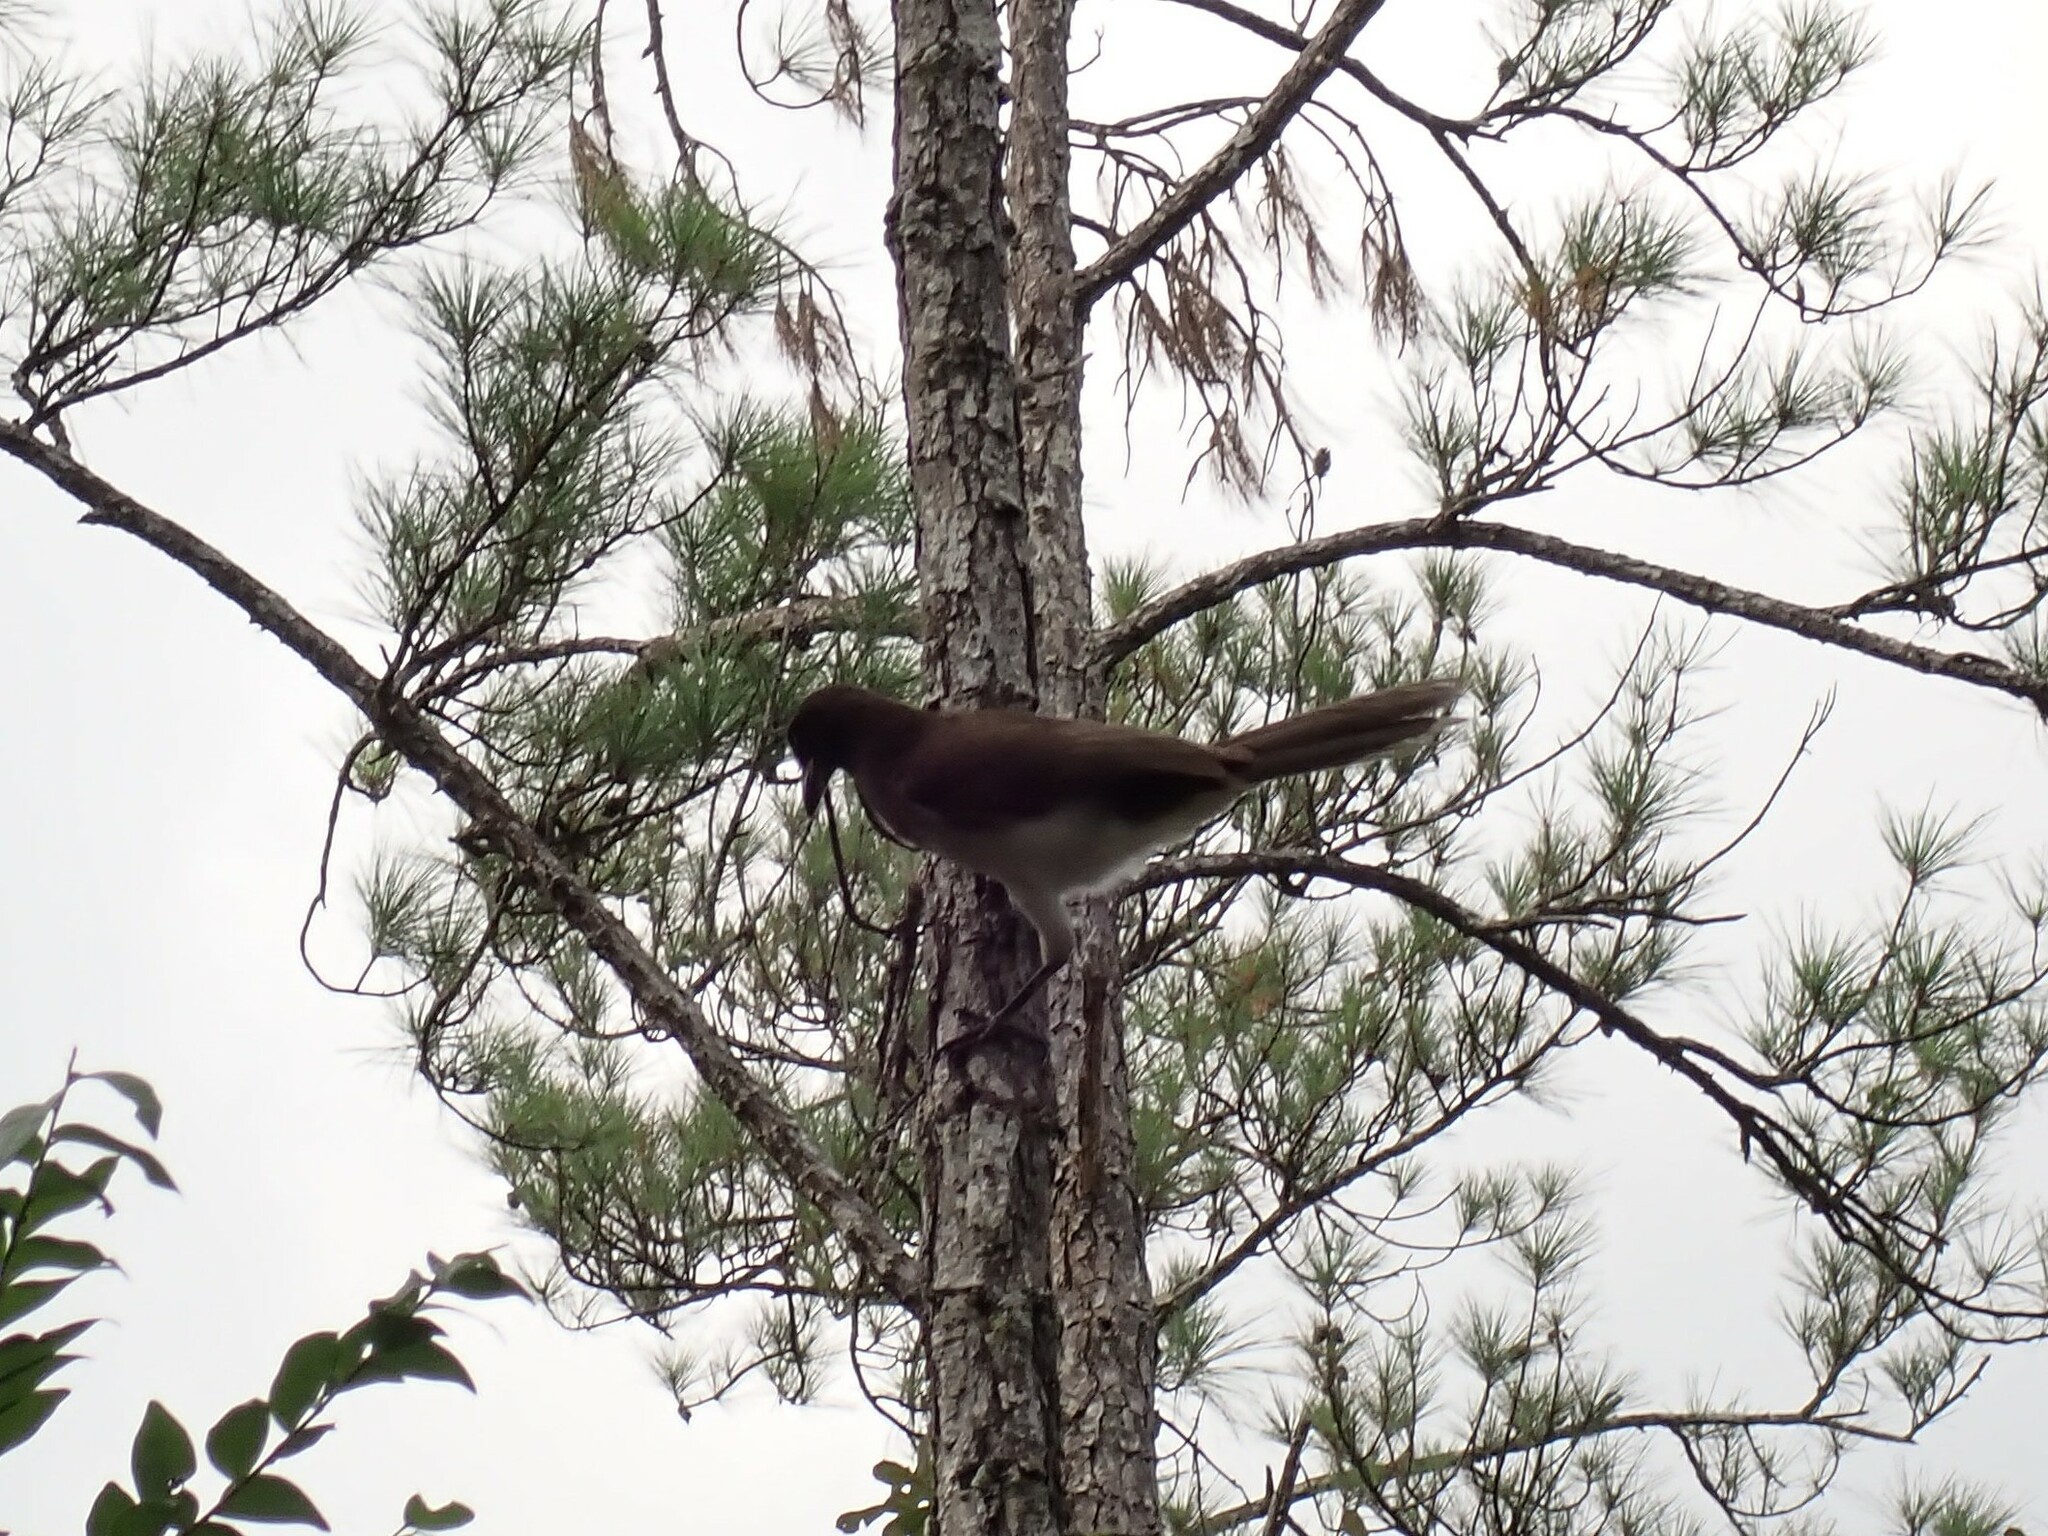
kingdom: Animalia
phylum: Chordata
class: Aves
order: Passeriformes
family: Corvidae
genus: Psilorhinus
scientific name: Psilorhinus morio
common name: Brown jay
